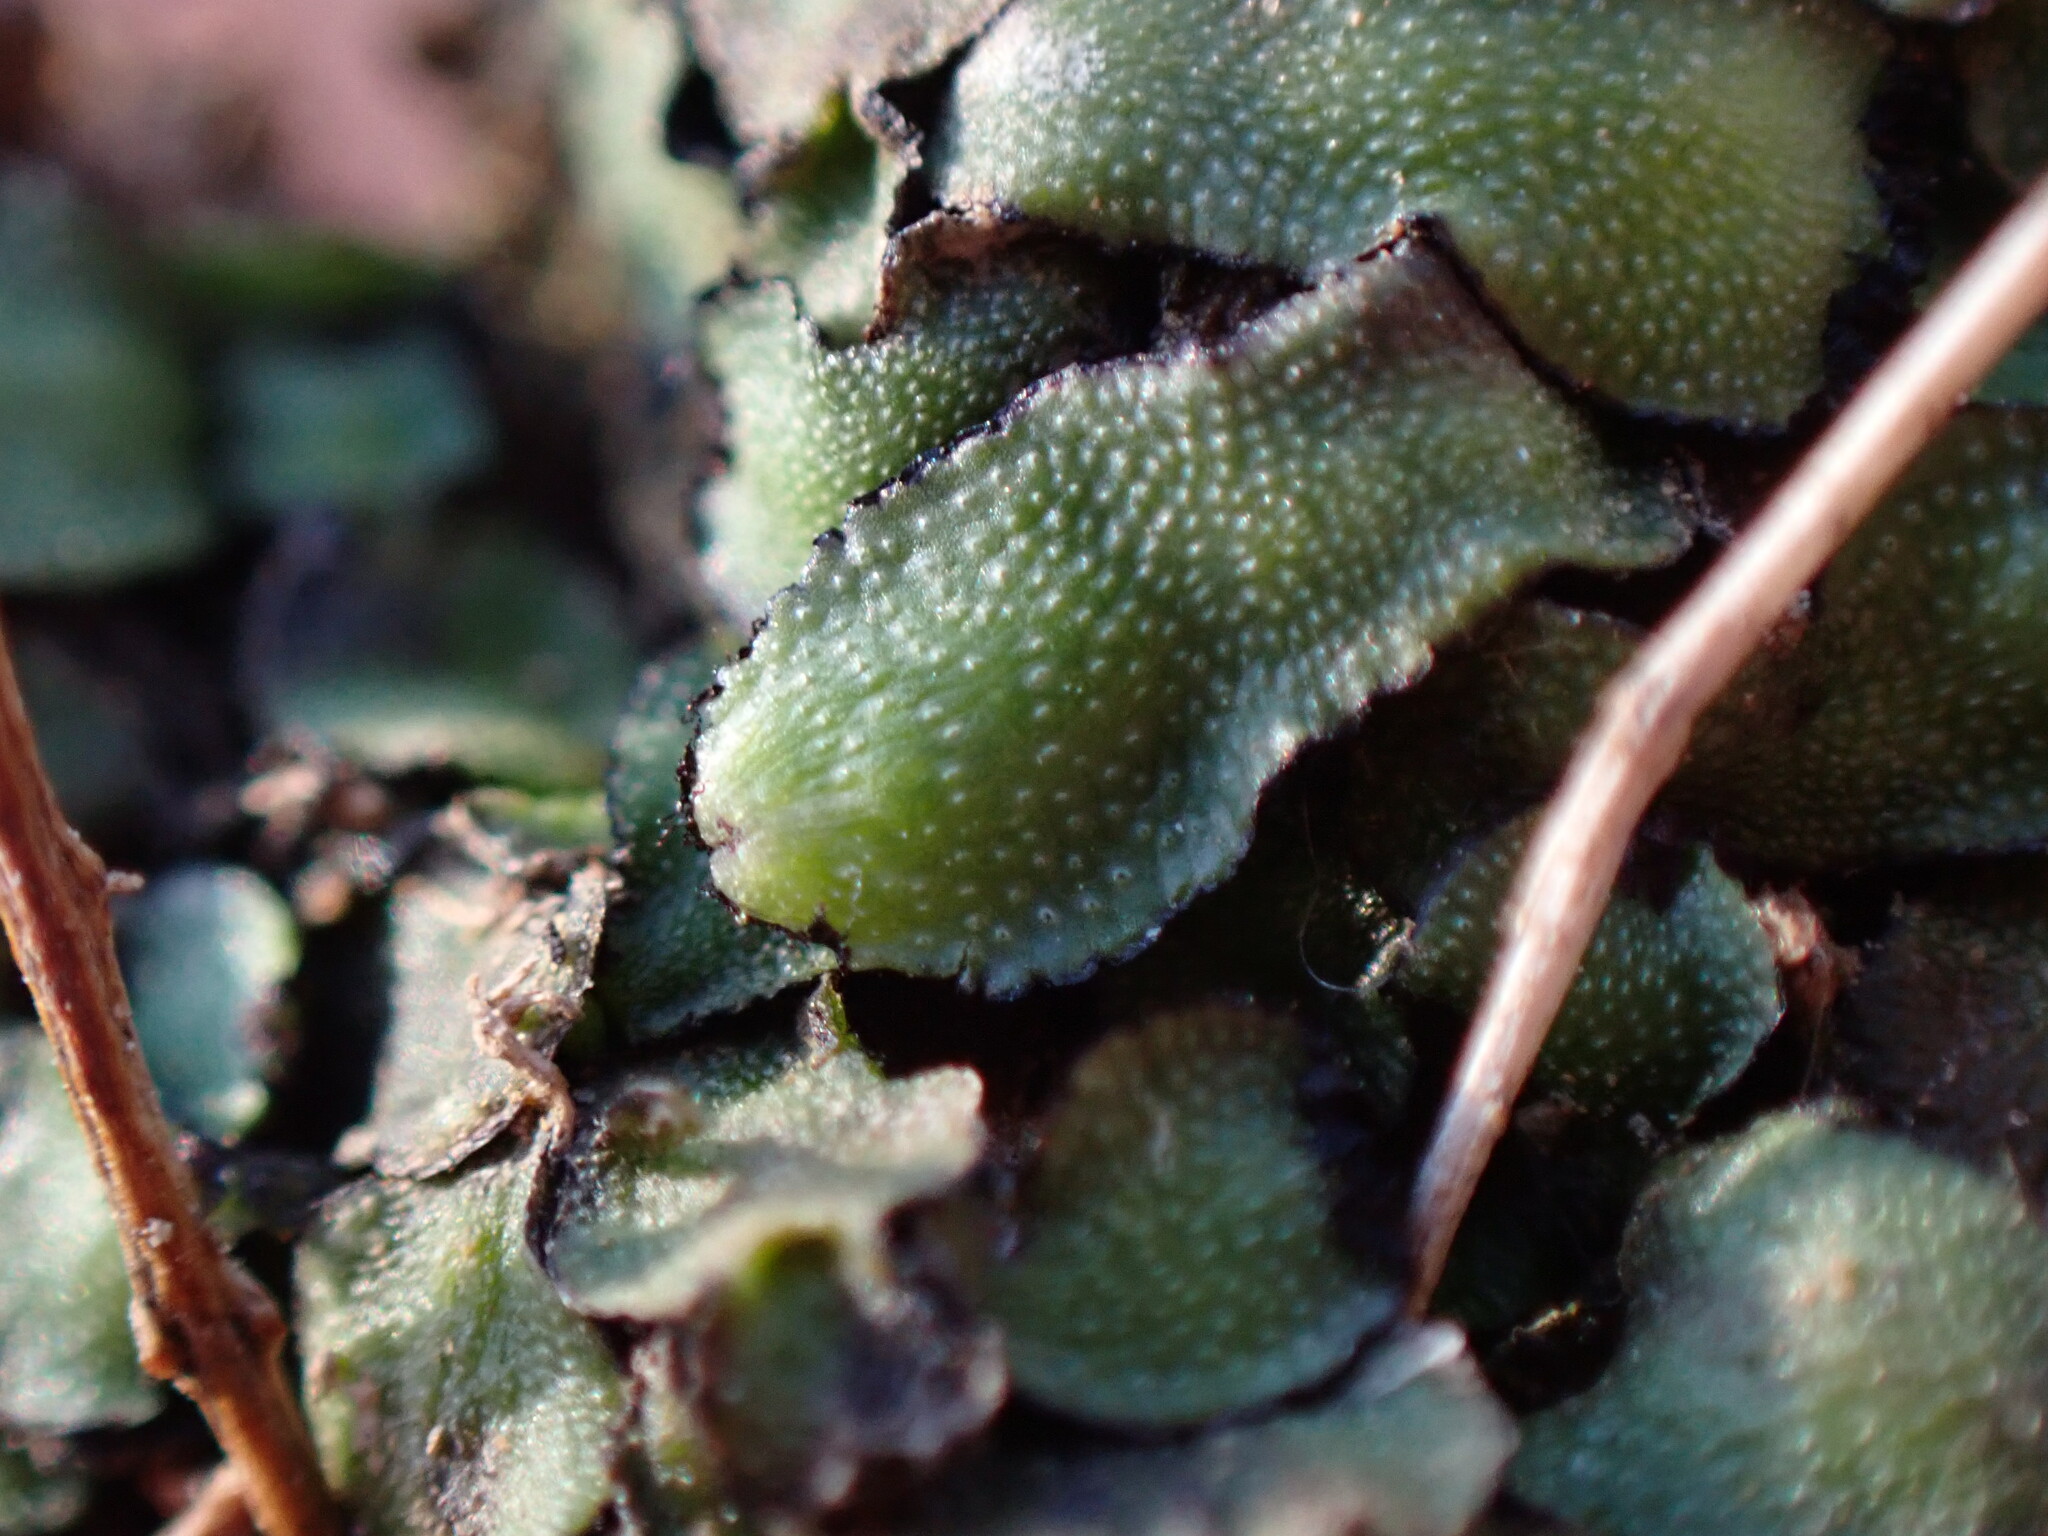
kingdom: Plantae
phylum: Marchantiophyta
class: Marchantiopsida
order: Marchantiales
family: Targioniaceae
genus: Targionia
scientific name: Targionia hypophylla
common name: Orobus-seed liverwort
